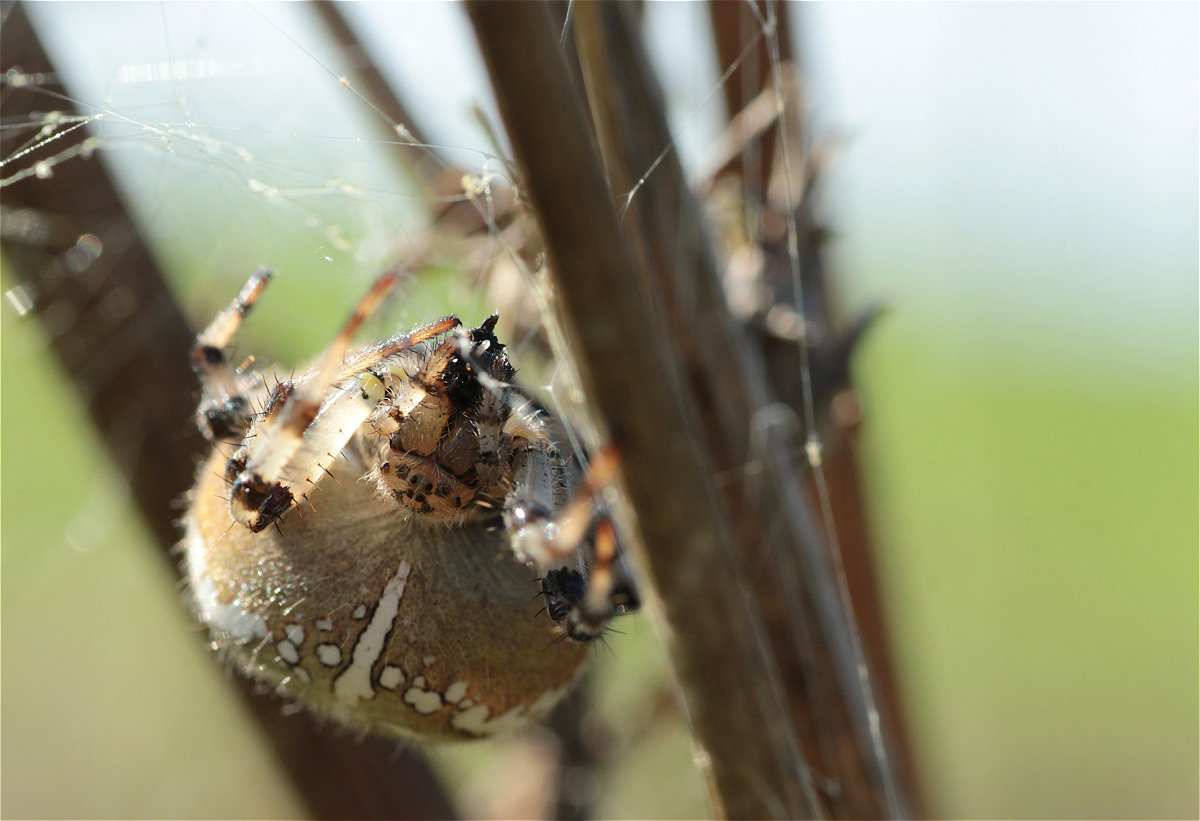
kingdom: Animalia
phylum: Arthropoda
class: Arachnida
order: Araneae
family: Araneidae
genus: Araneus
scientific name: Araneus diadematus
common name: Cross orbweaver
